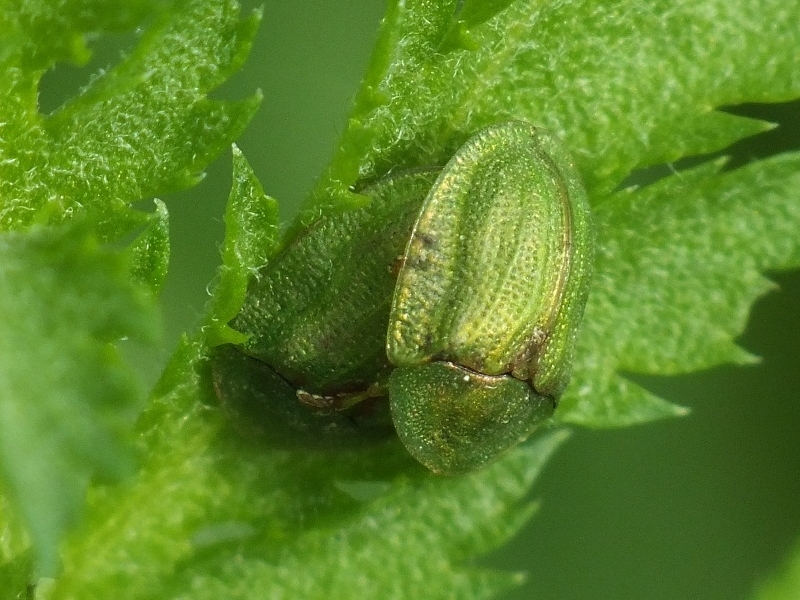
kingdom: Animalia
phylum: Arthropoda
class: Insecta
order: Coleoptera
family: Chrysomelidae
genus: Cassida
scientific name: Cassida stigmatica
